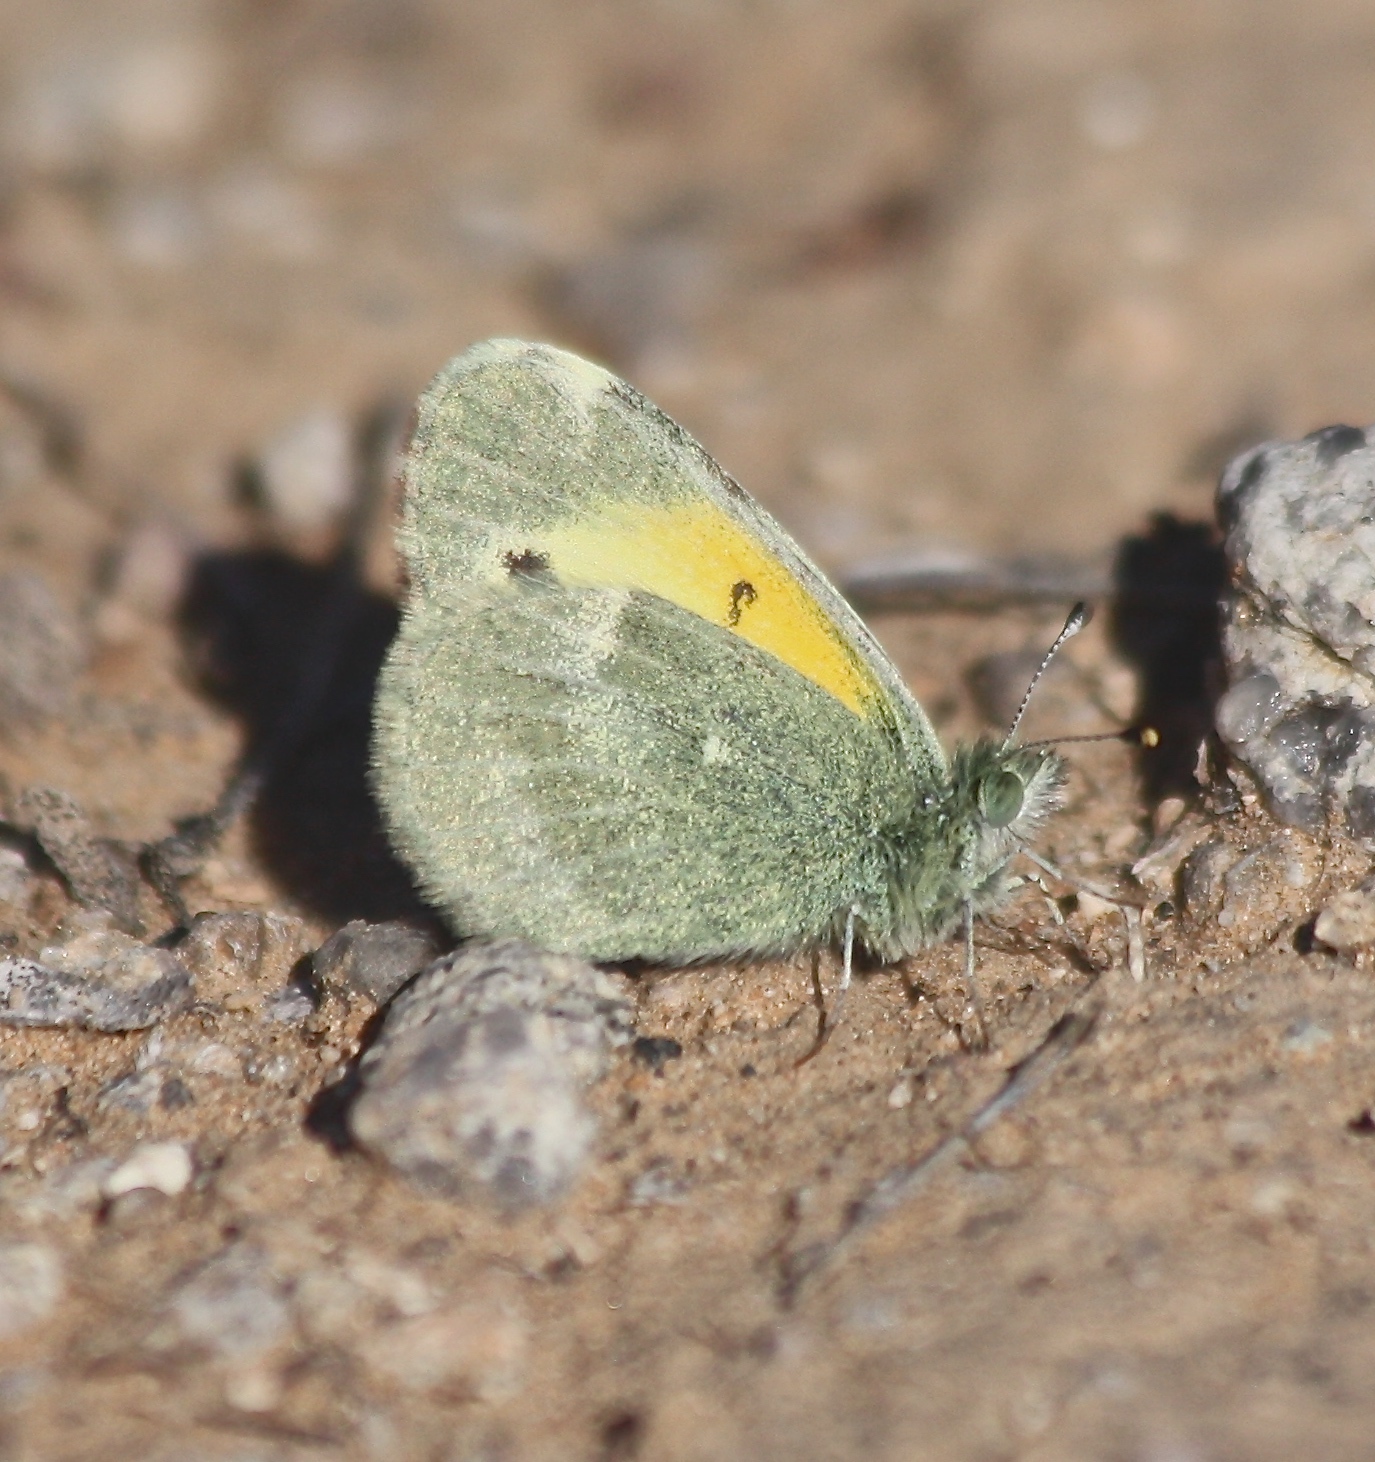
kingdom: Animalia
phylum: Arthropoda
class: Insecta
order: Lepidoptera
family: Pieridae
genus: Nathalis
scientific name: Nathalis iole
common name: Dainty sulphur
